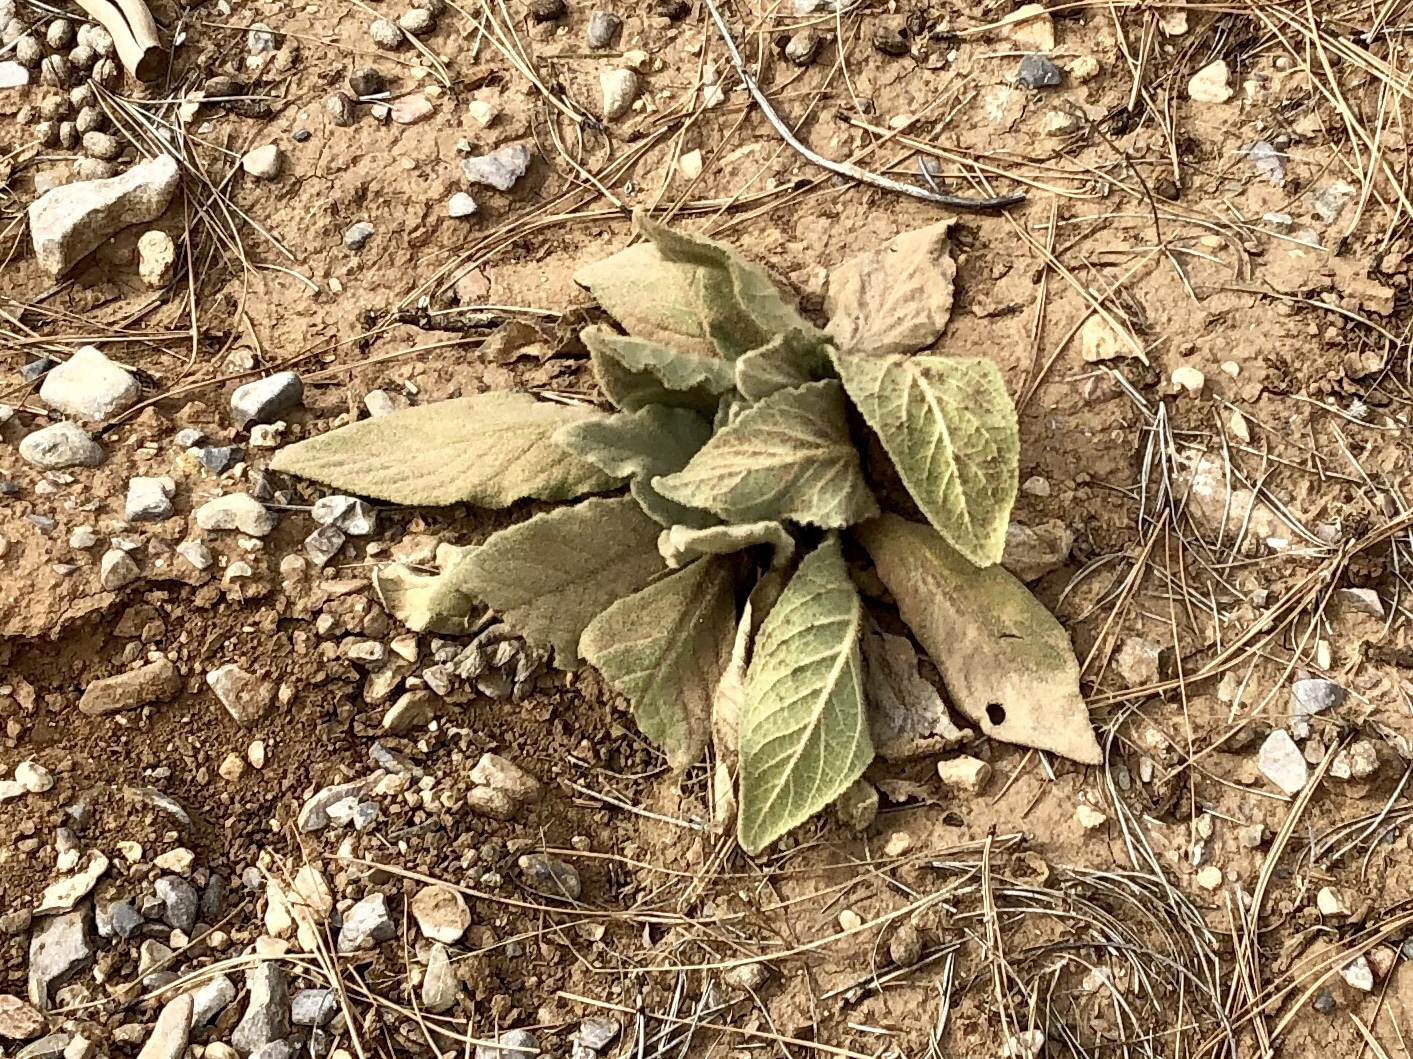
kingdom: Plantae
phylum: Tracheophyta
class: Magnoliopsida
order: Lamiales
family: Scrophulariaceae
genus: Verbascum
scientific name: Verbascum thapsus
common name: Common mullein
